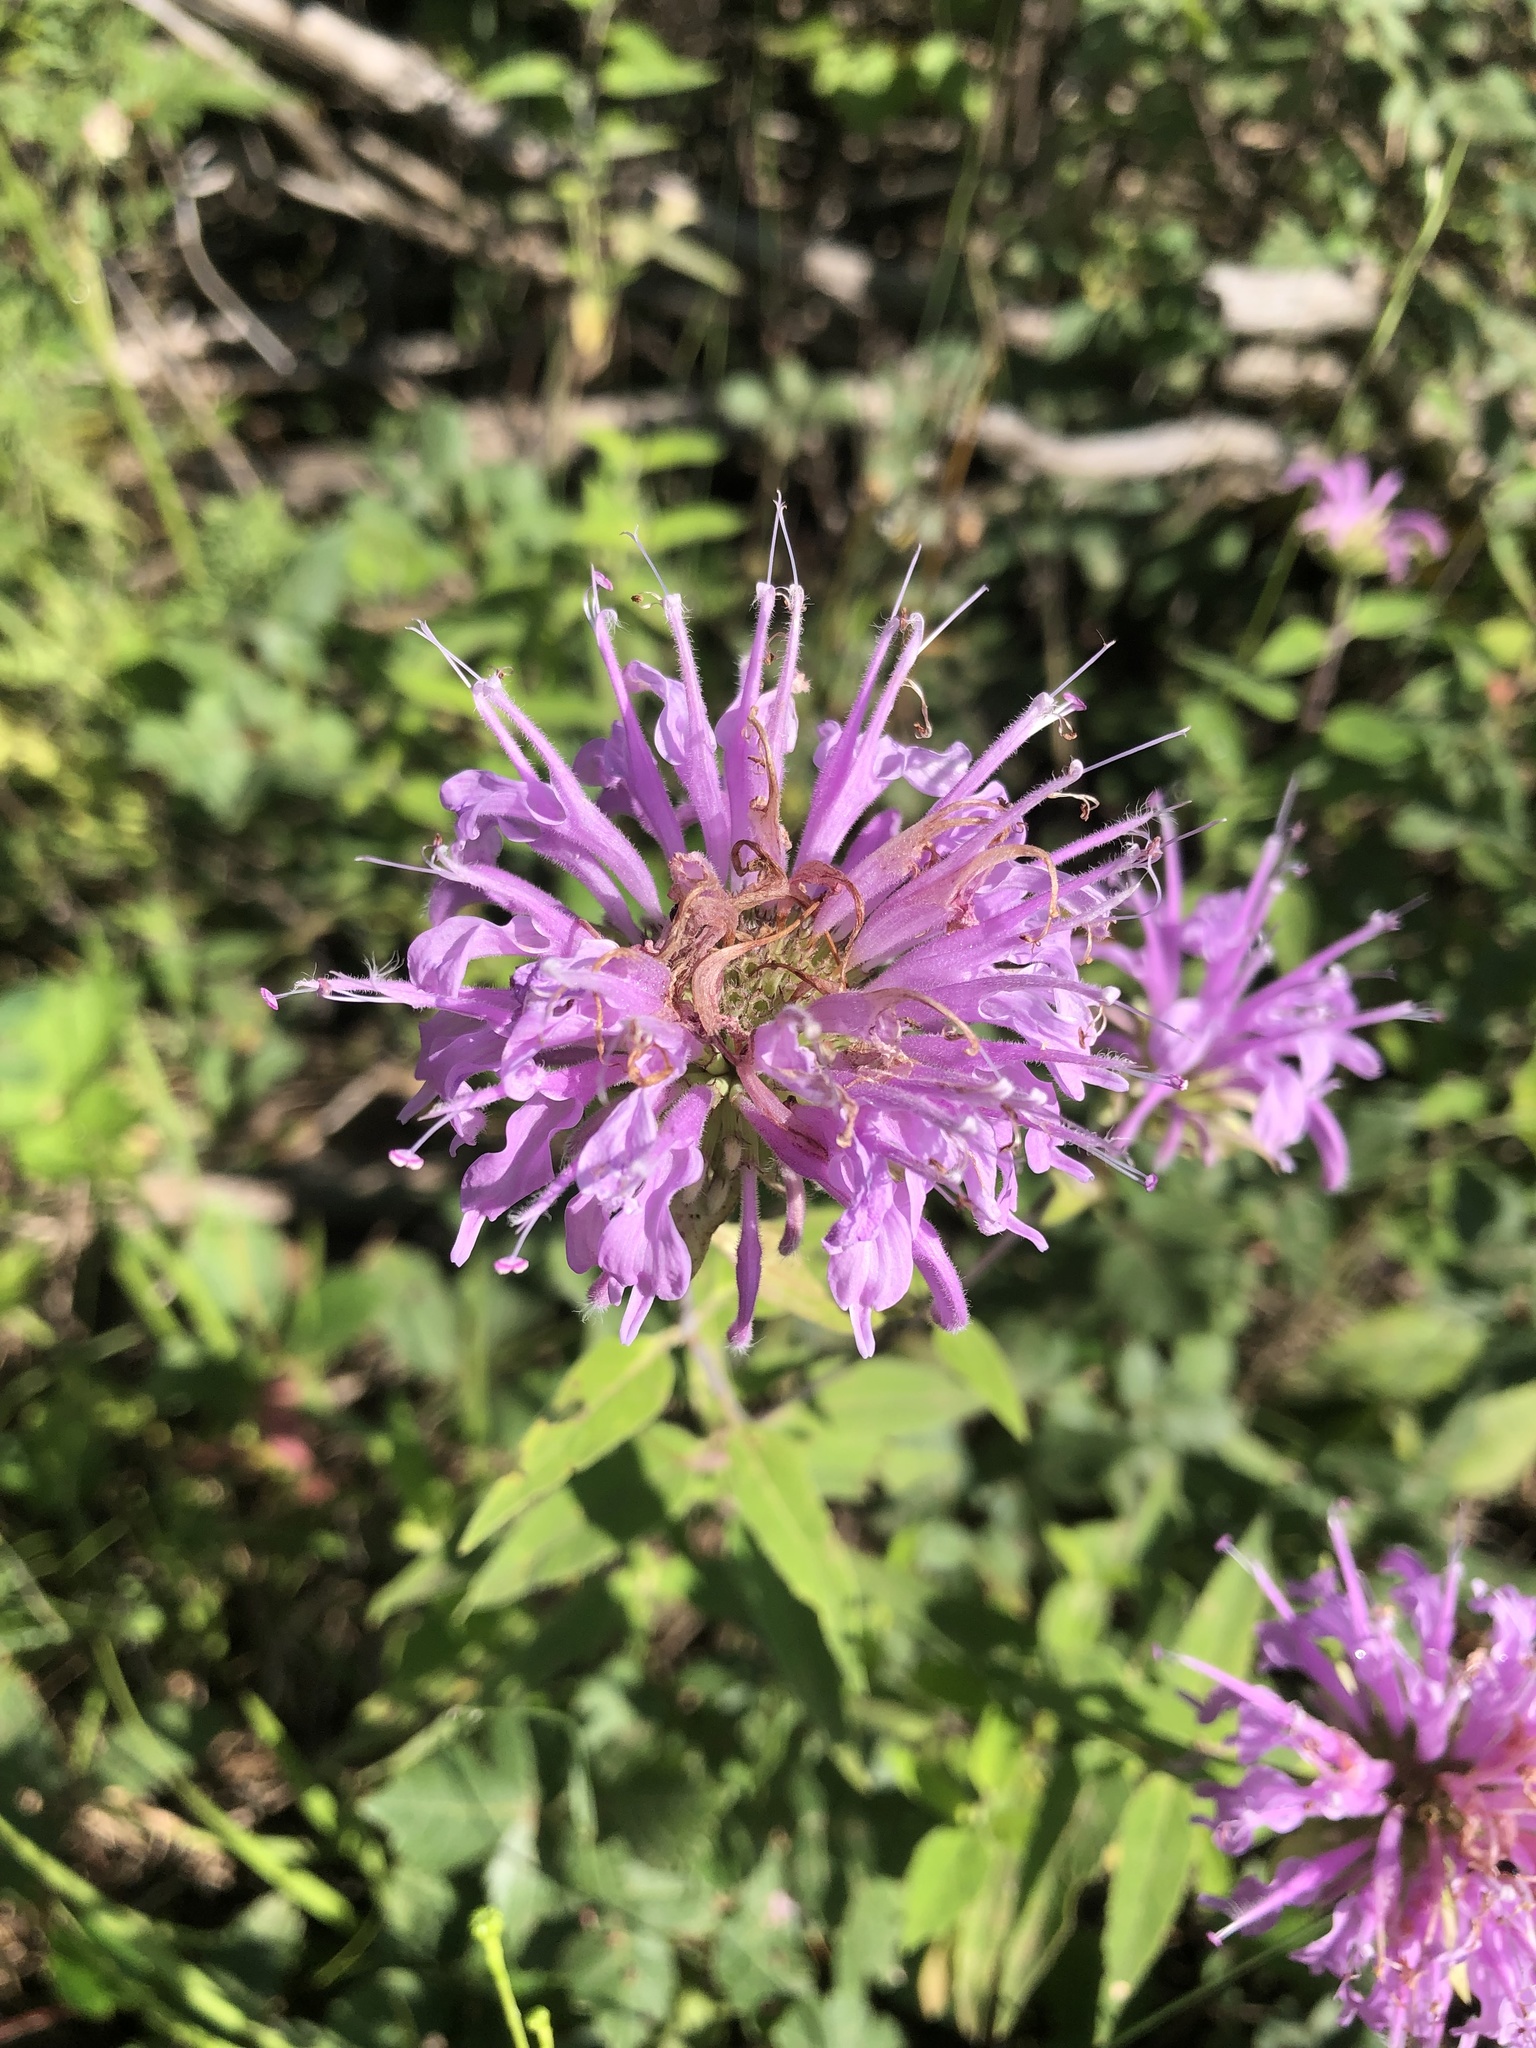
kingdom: Plantae
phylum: Tracheophyta
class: Magnoliopsida
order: Lamiales
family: Lamiaceae
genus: Monarda
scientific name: Monarda fistulosa
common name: Purple beebalm
